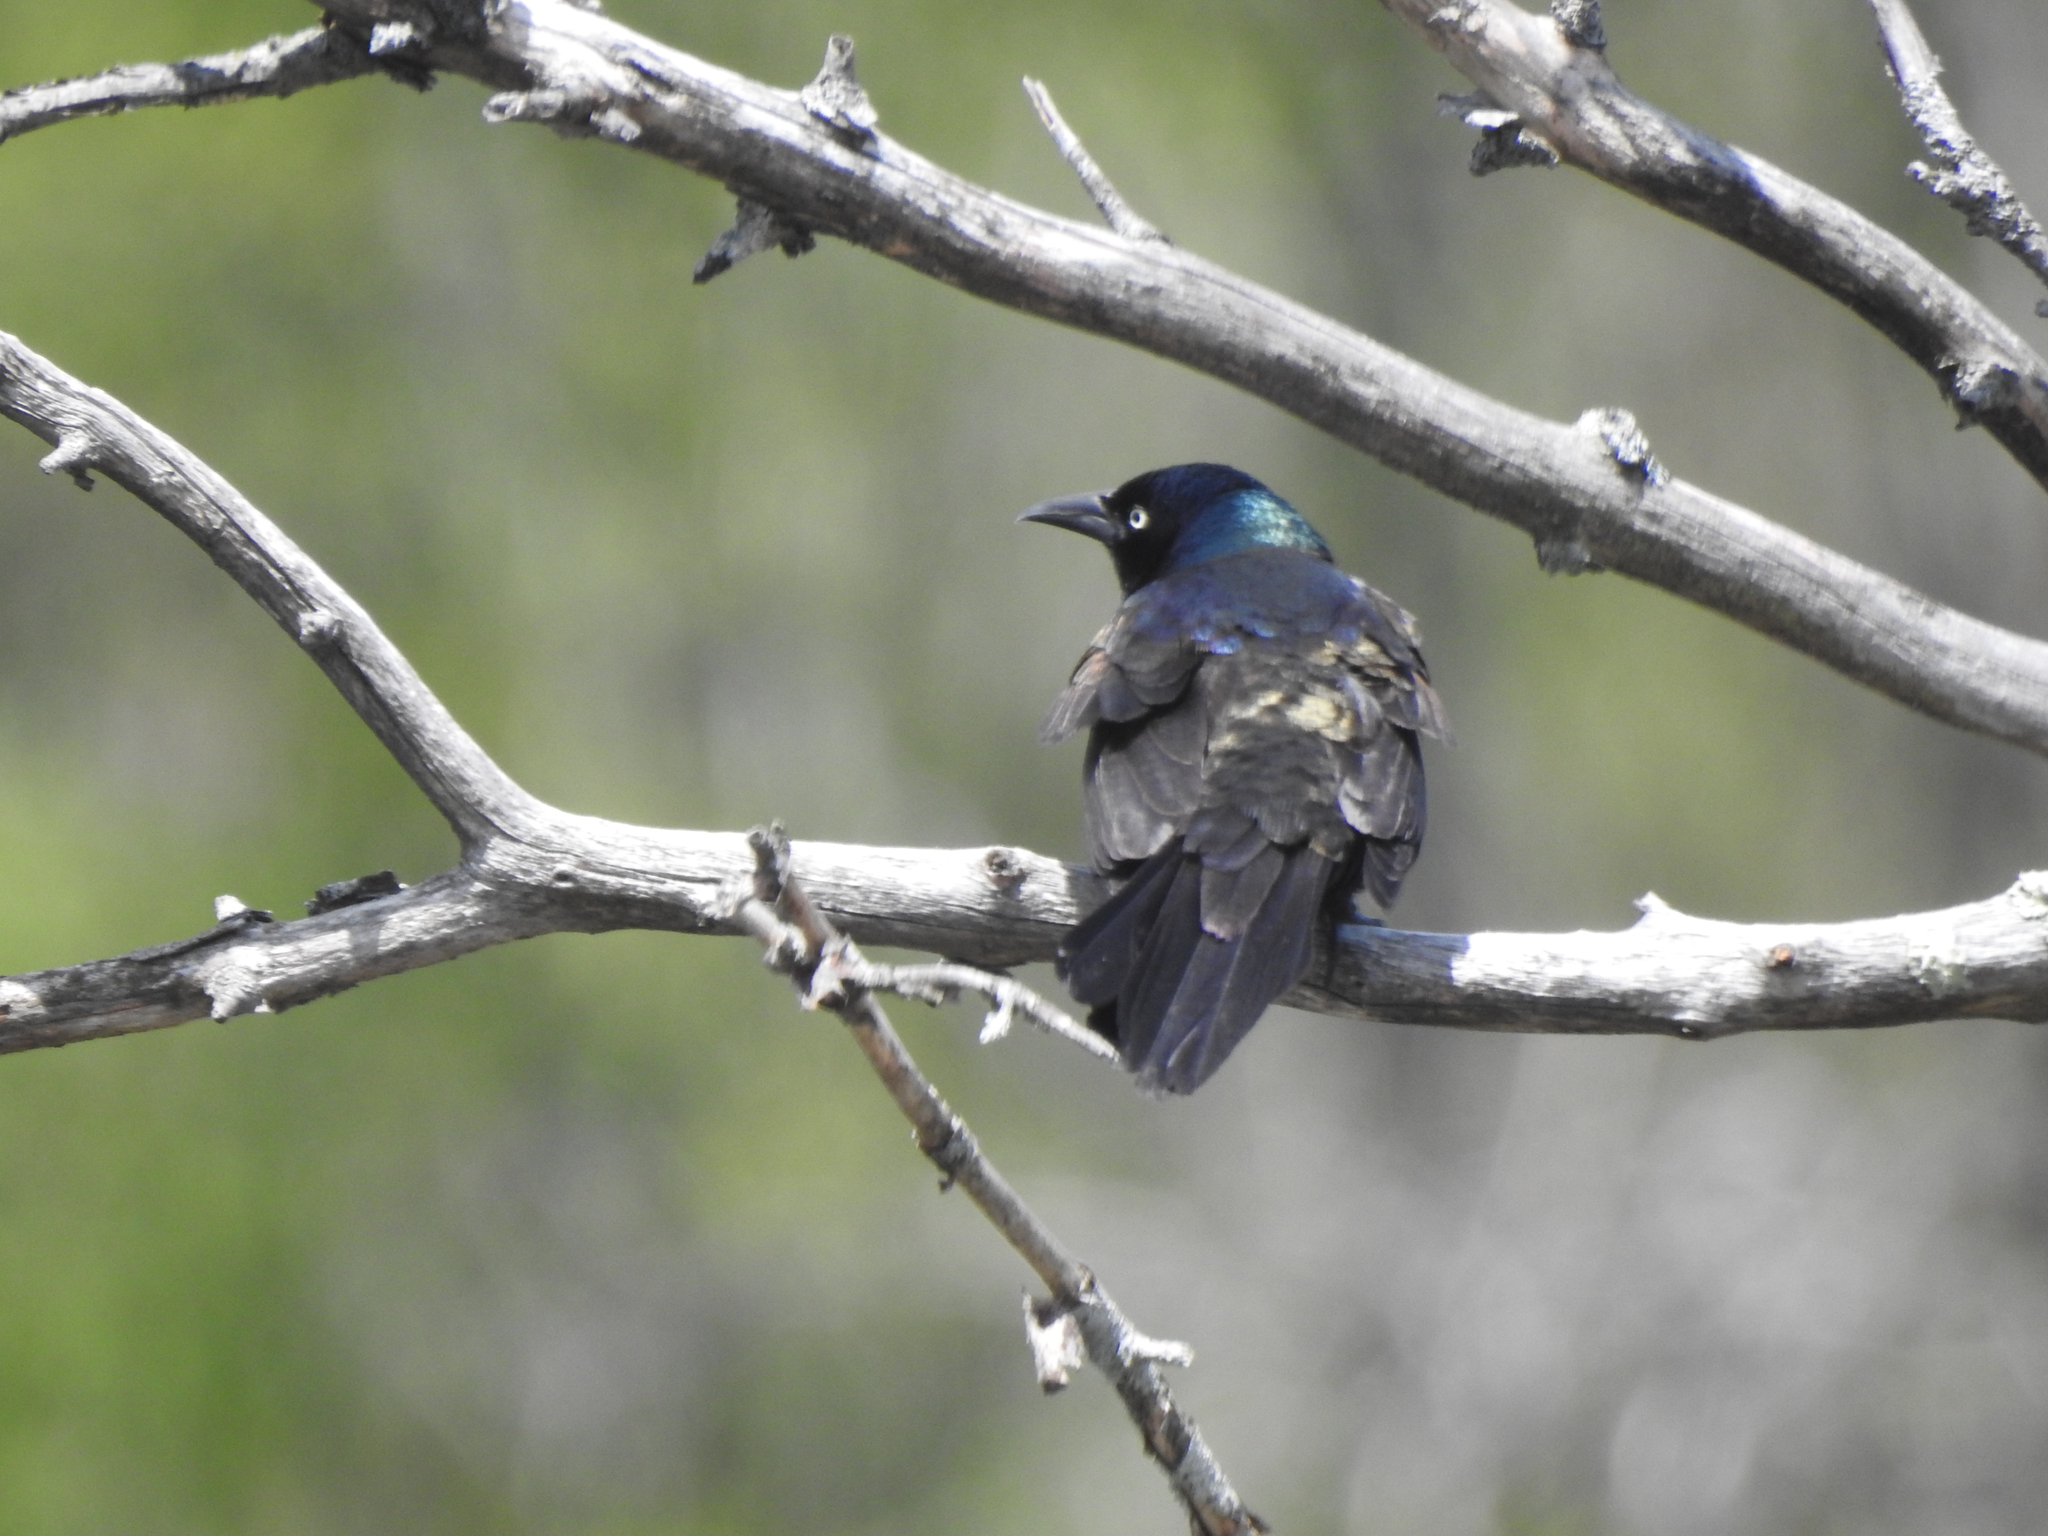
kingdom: Animalia
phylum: Chordata
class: Aves
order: Passeriformes
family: Icteridae
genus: Quiscalus
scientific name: Quiscalus quiscula
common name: Common grackle
